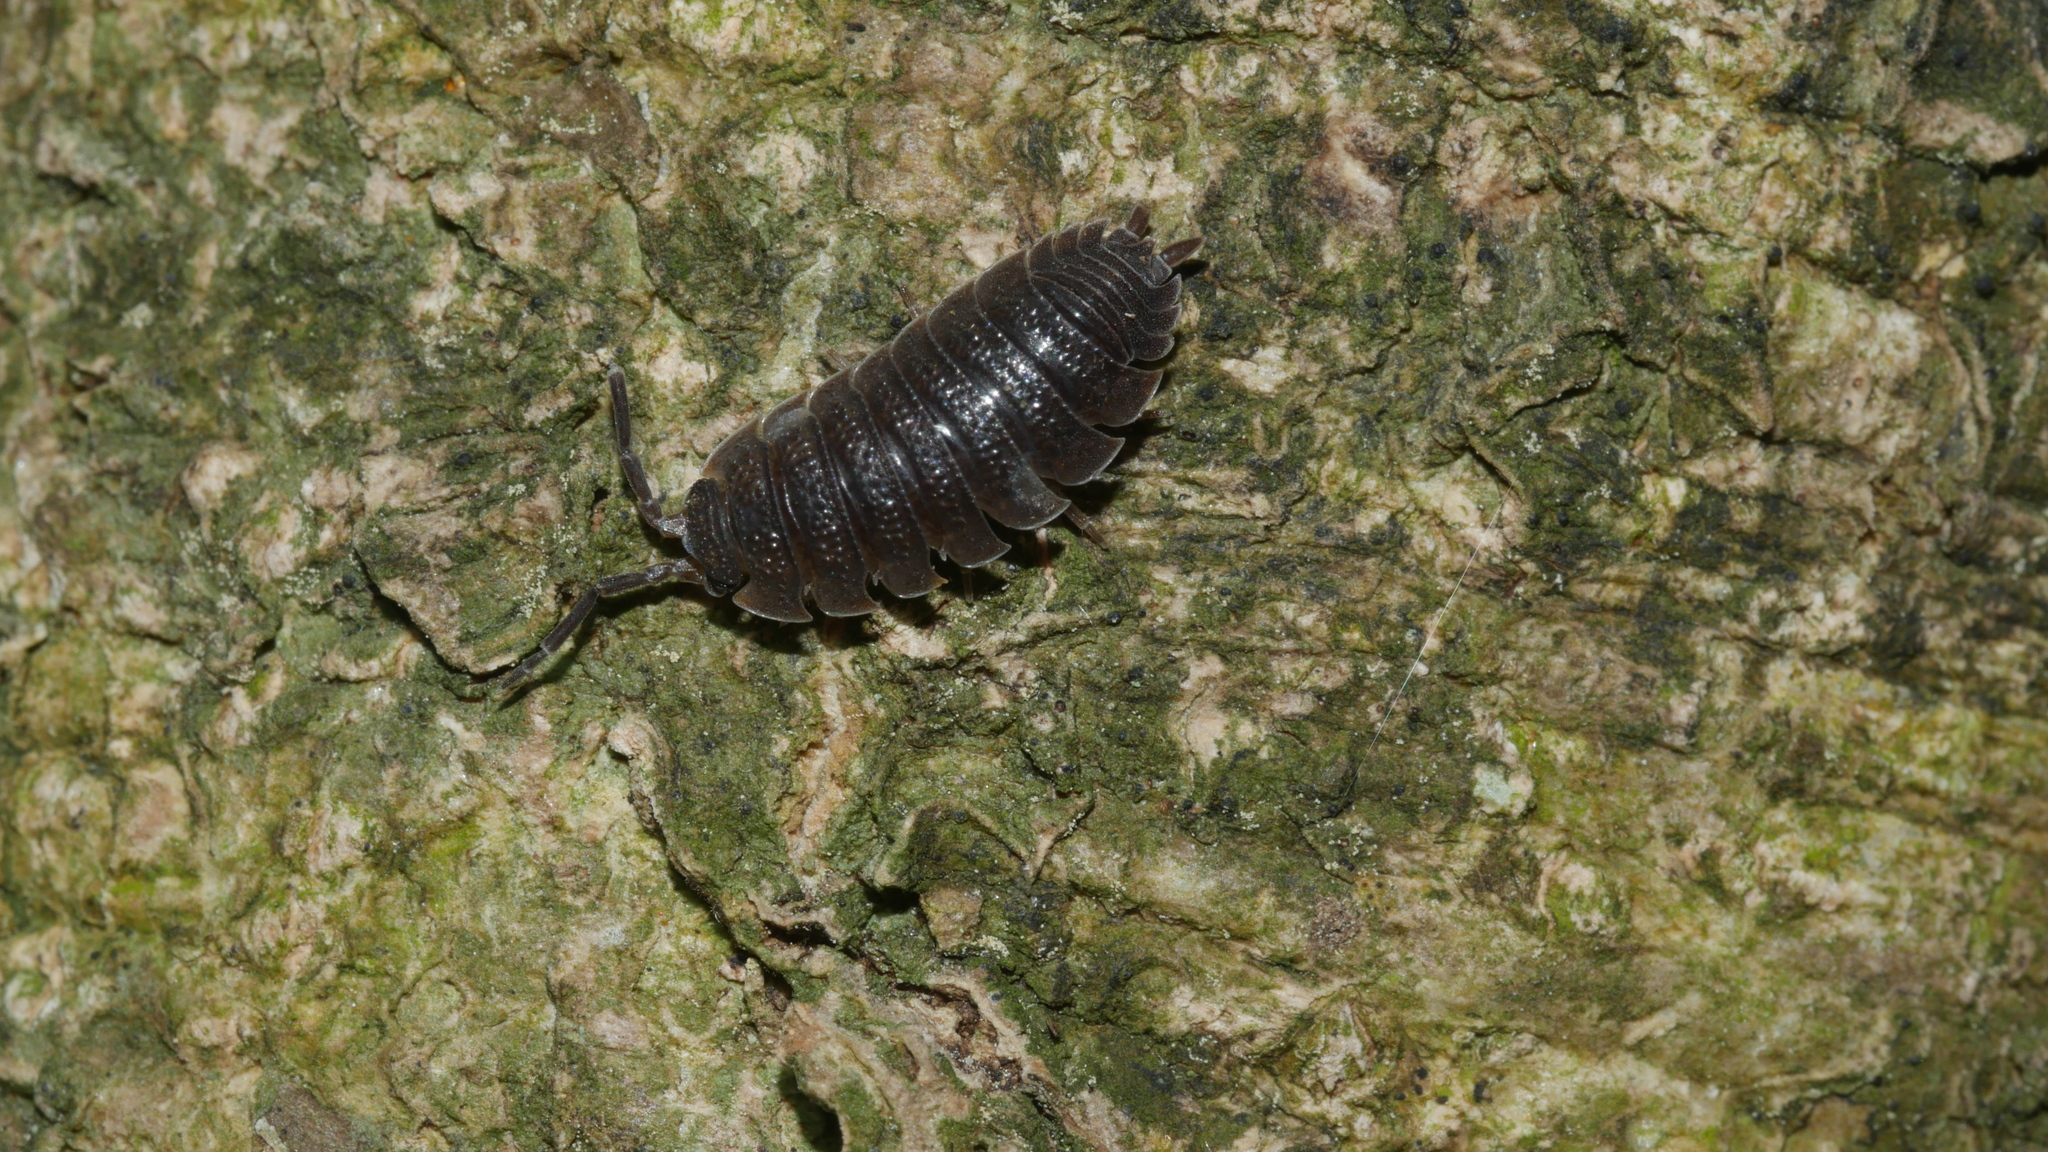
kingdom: Animalia
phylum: Arthropoda
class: Malacostraca
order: Isopoda
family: Porcellionidae
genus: Porcellio
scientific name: Porcellio scaber
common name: Common rough woodlouse
